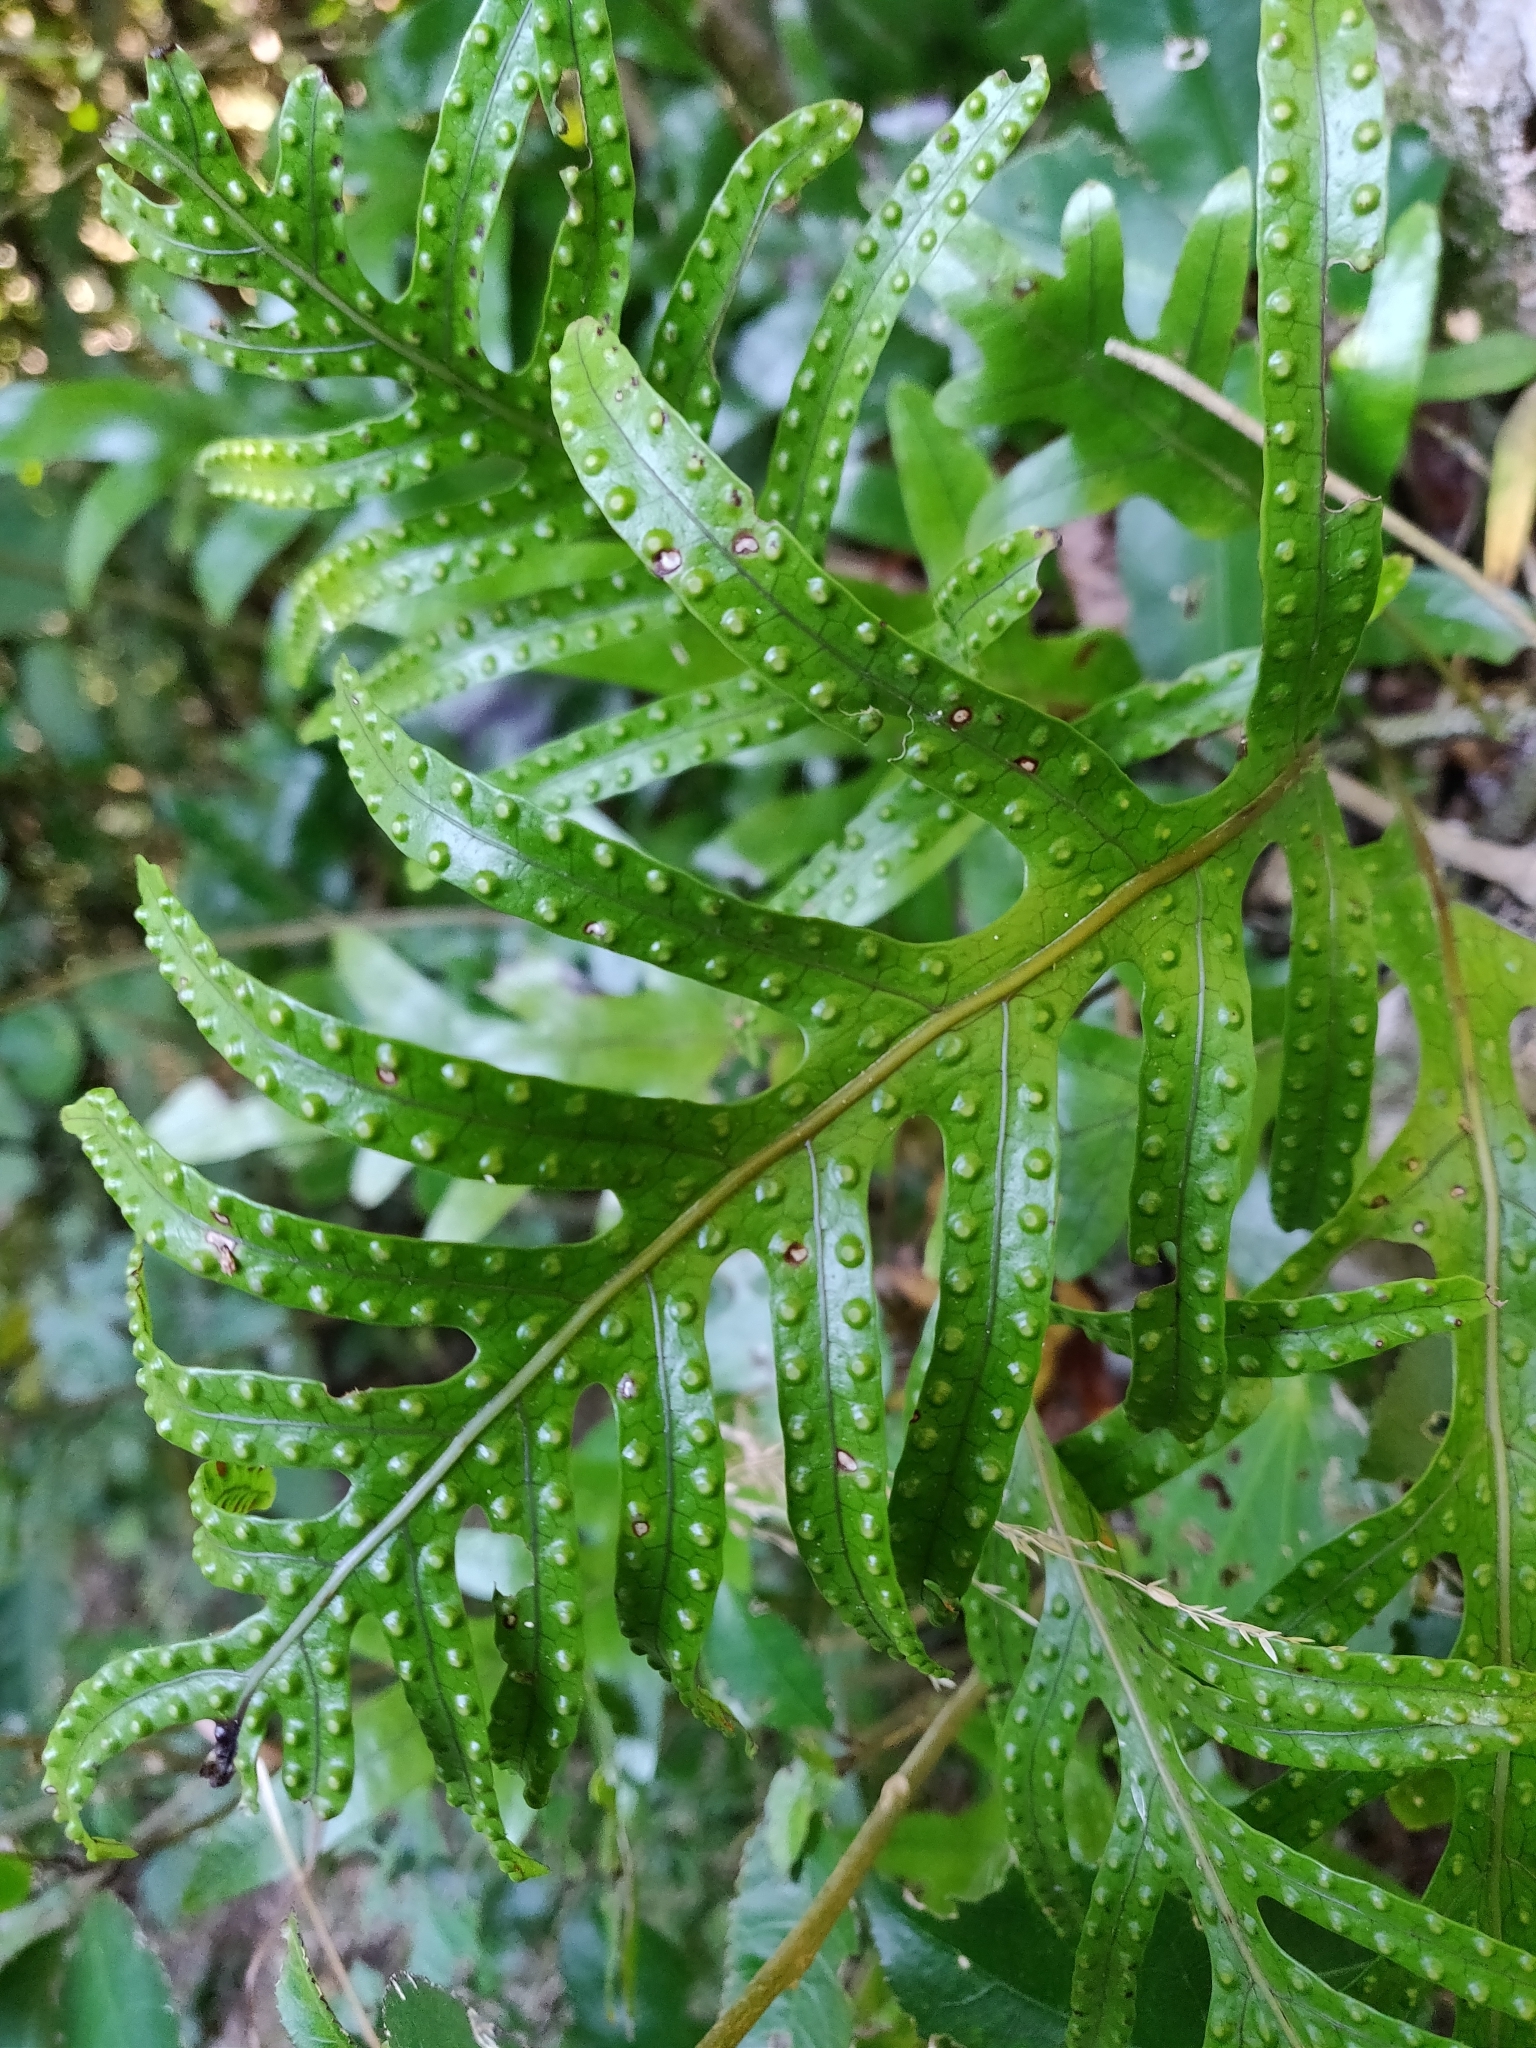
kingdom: Plantae
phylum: Tracheophyta
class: Polypodiopsida
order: Polypodiales
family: Polypodiaceae
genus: Lecanopteris
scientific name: Lecanopteris pustulata
